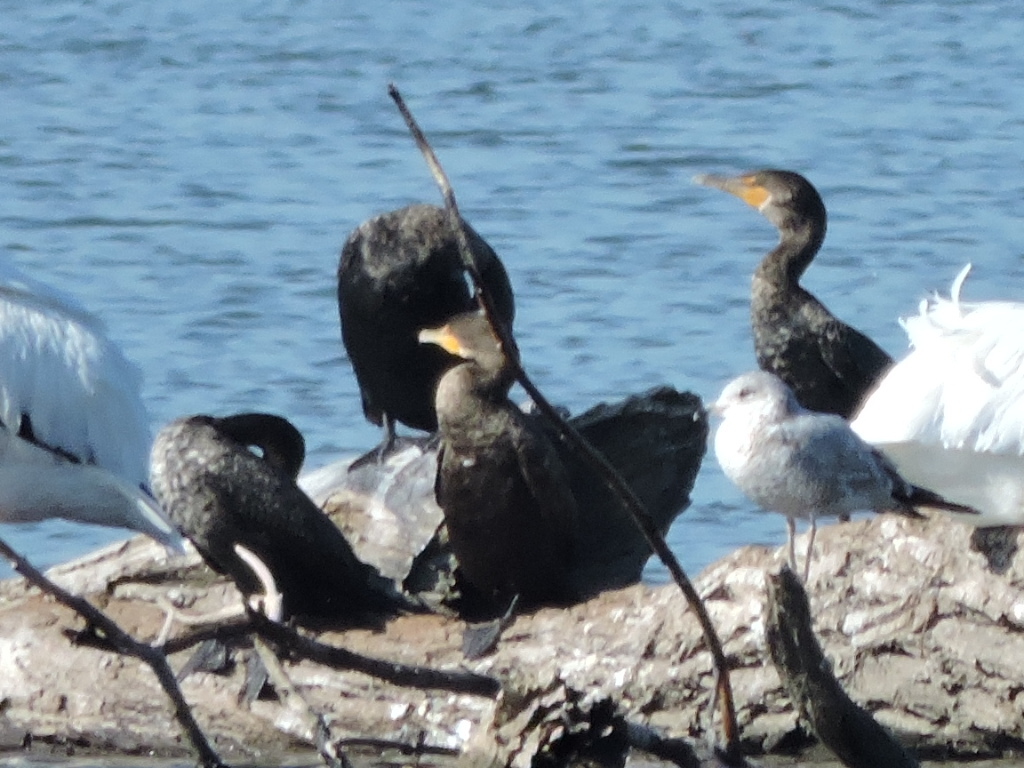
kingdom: Animalia
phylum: Chordata
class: Aves
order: Suliformes
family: Phalacrocoracidae
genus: Phalacrocorax
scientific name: Phalacrocorax brasilianus
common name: Neotropic cormorant
